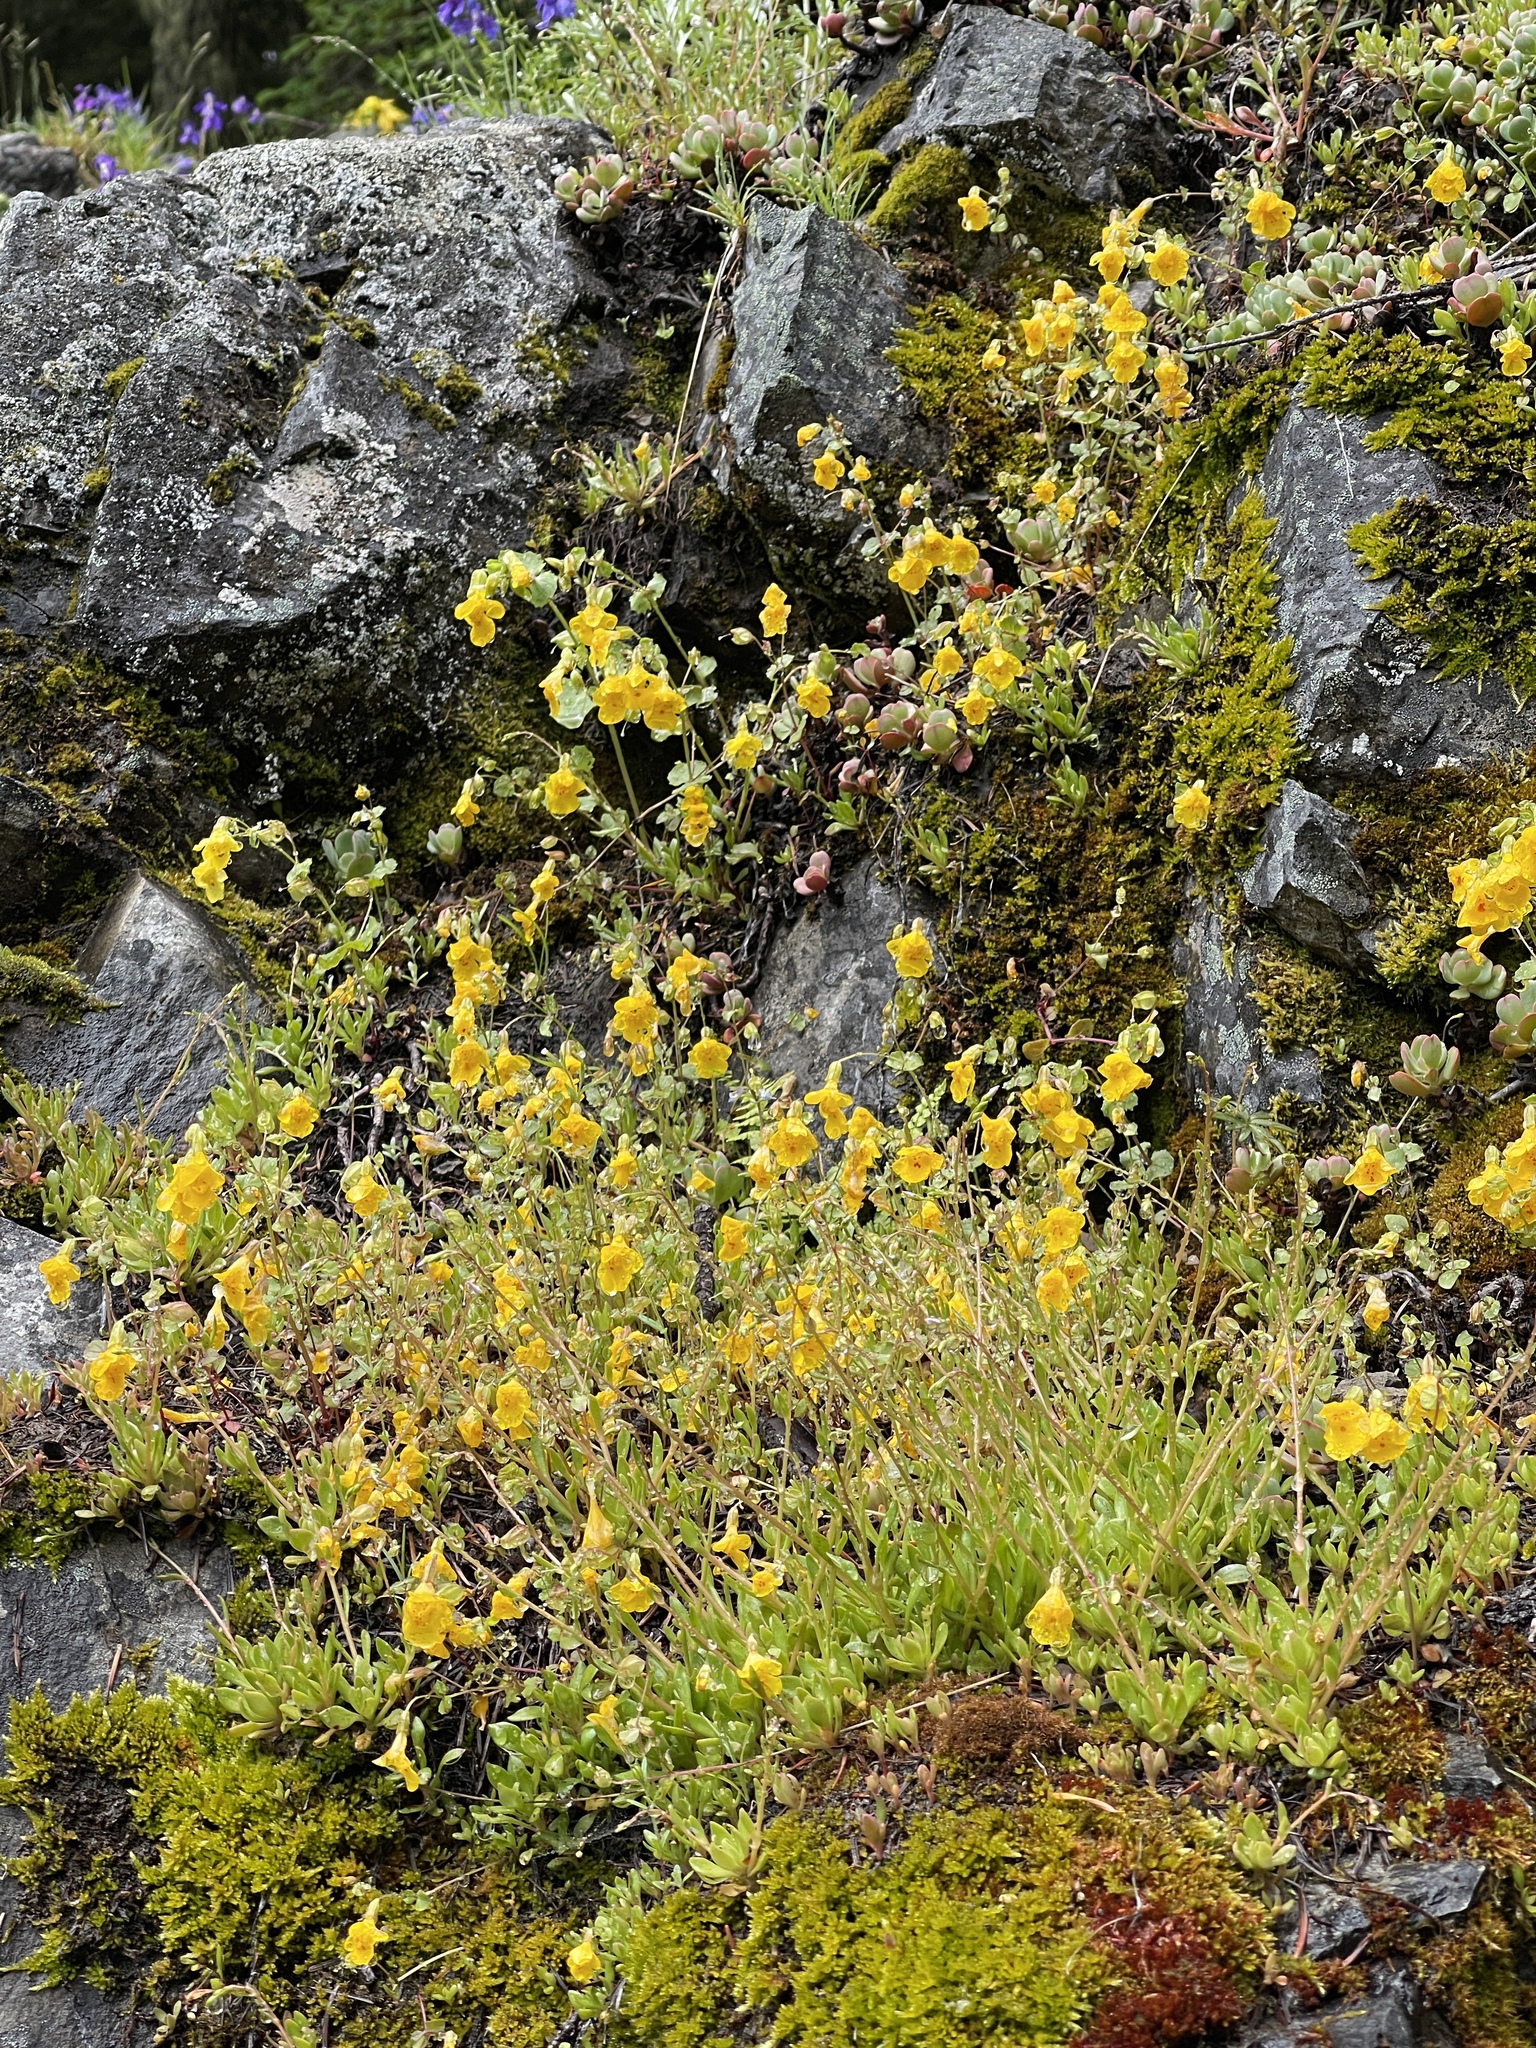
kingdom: Plantae
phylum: Tracheophyta
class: Magnoliopsida
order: Lamiales
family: Phrymaceae
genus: Erythranthe
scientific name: Erythranthe microphylla
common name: Bentham's monkeyflower
